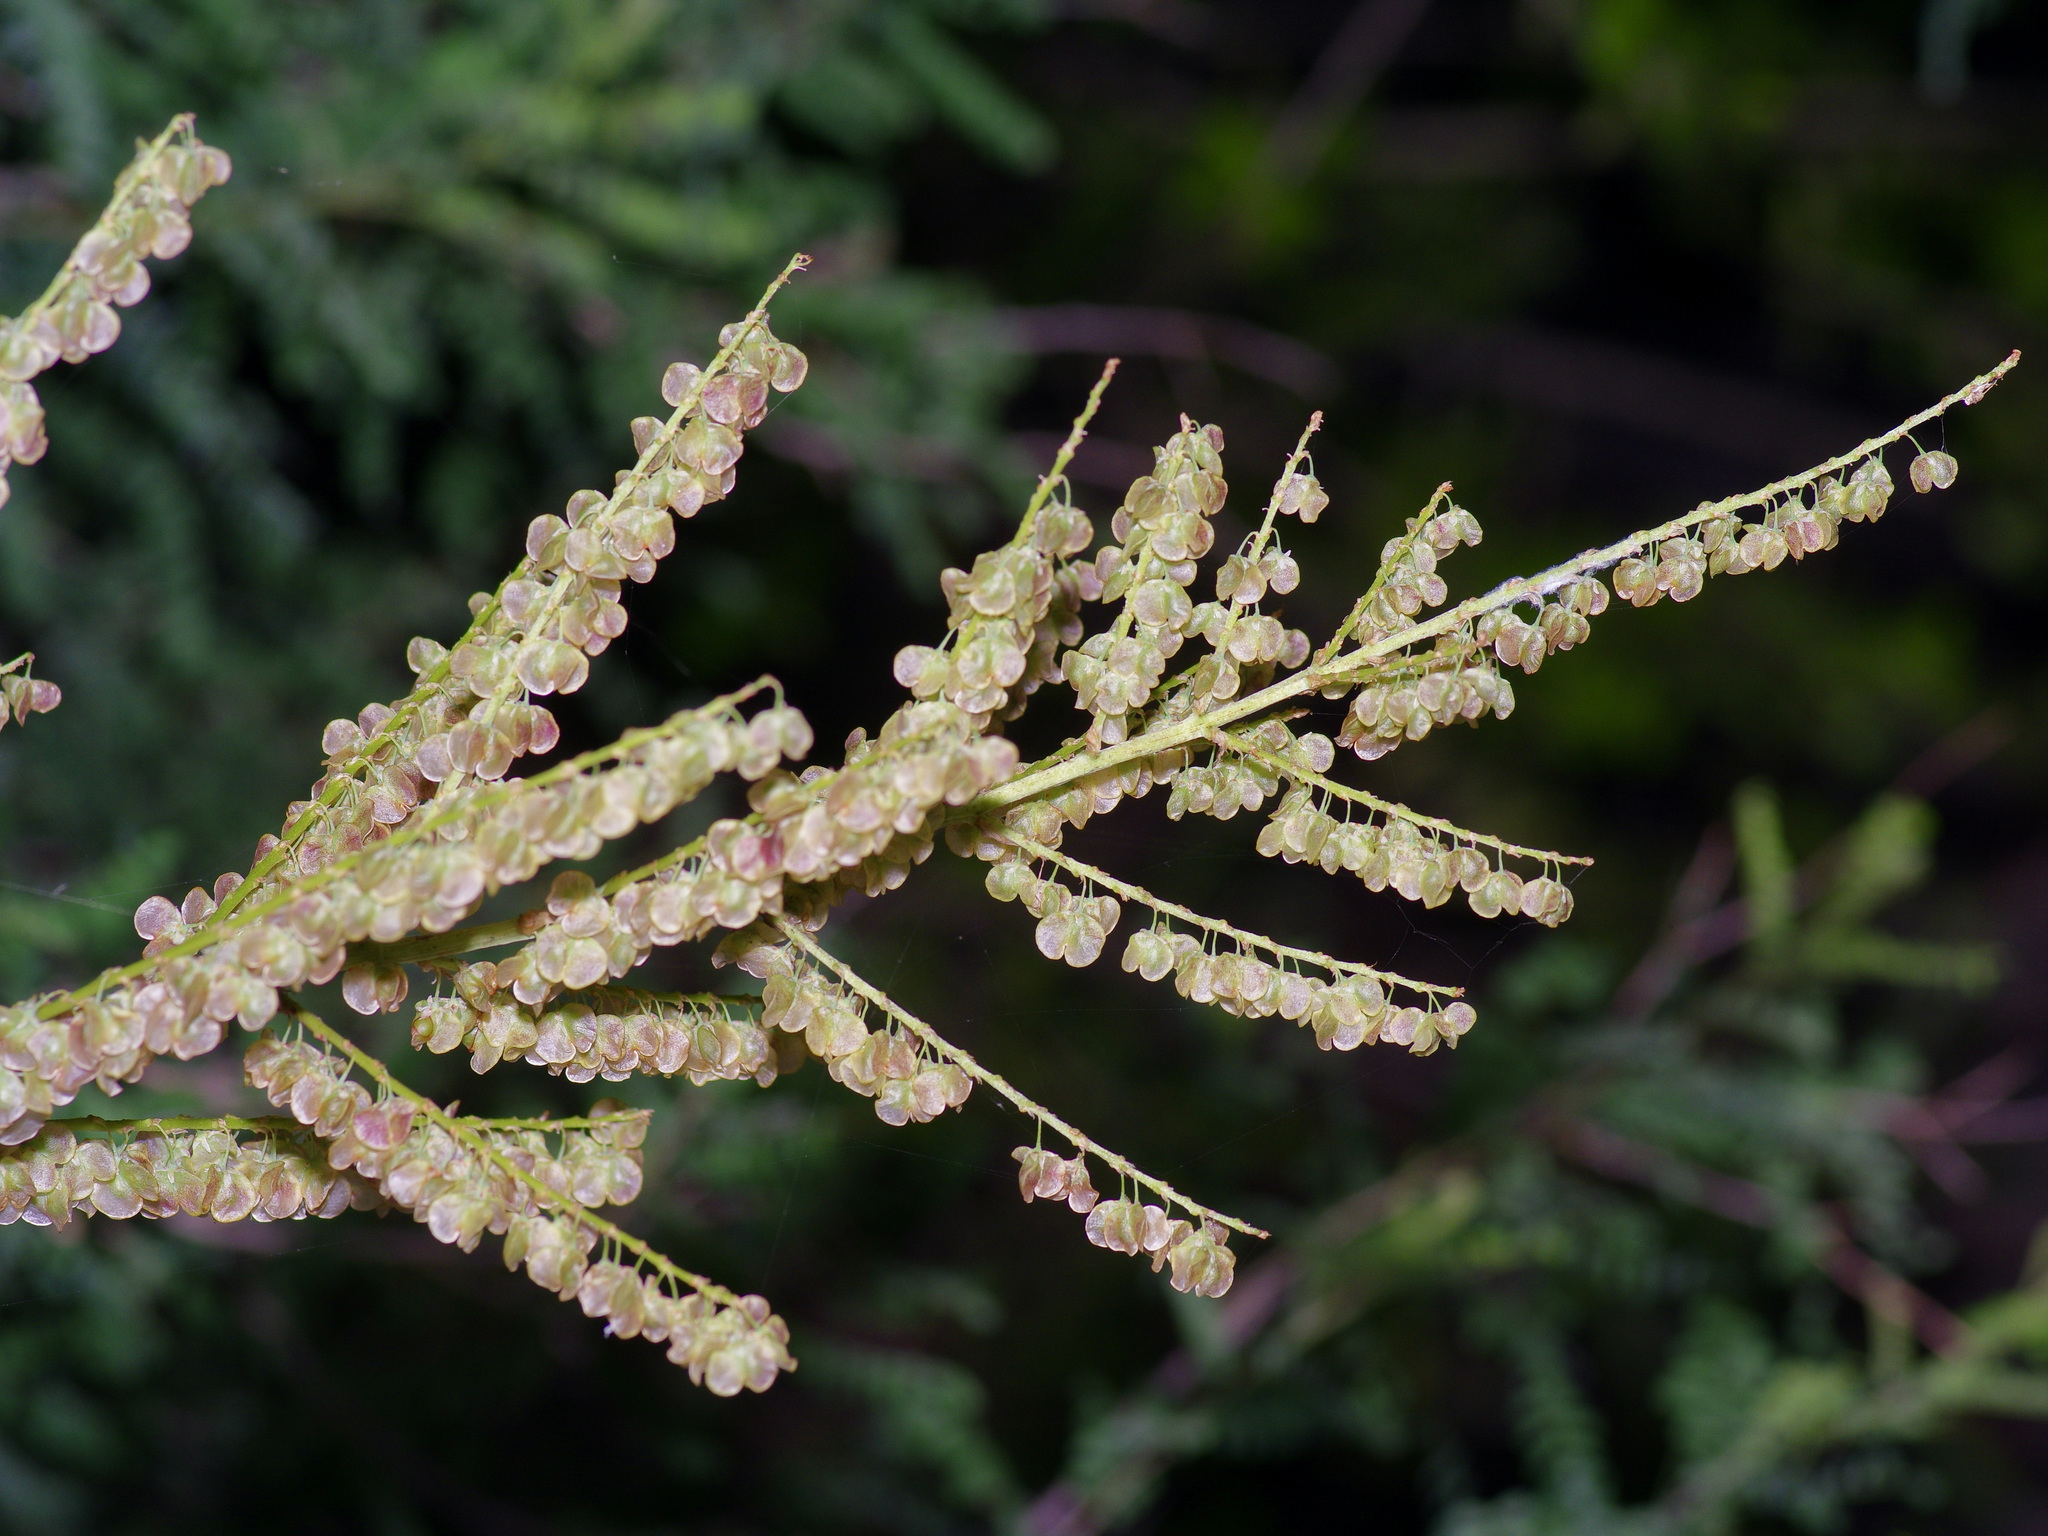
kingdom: Plantae
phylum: Tracheophyta
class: Liliopsida
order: Asparagales
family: Asparagaceae
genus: Nolina
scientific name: Nolina lindheimeriana
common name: Lindheimer's bear-grass
